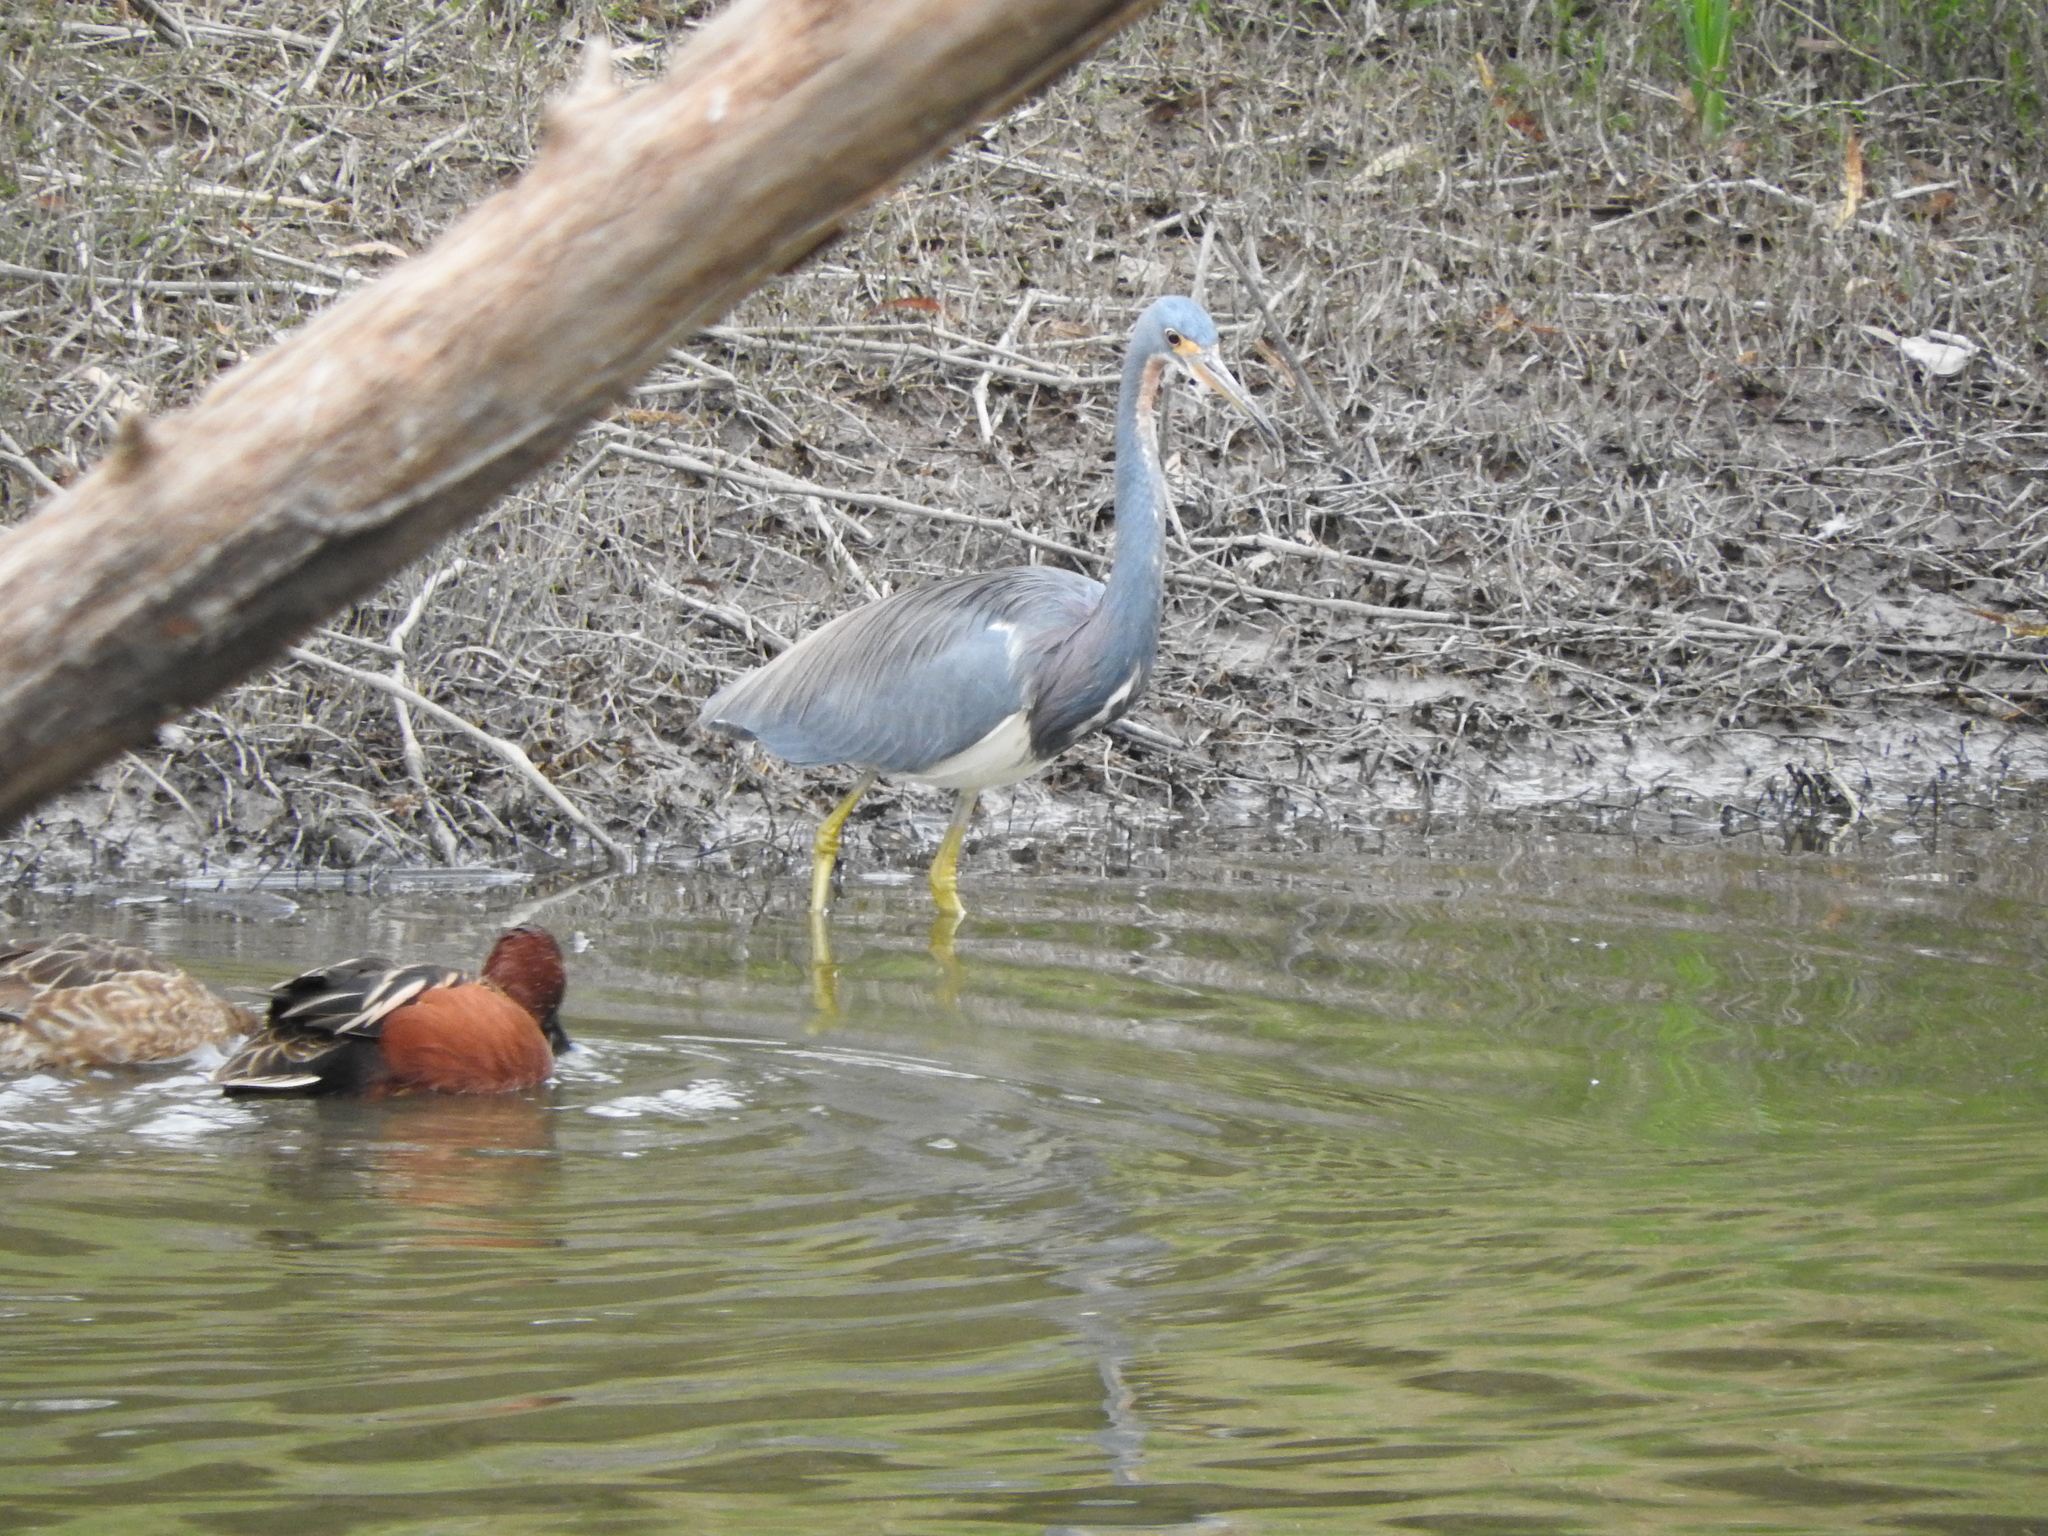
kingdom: Animalia
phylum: Chordata
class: Aves
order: Pelecaniformes
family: Ardeidae
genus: Egretta
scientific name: Egretta tricolor
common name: Tricolored heron
